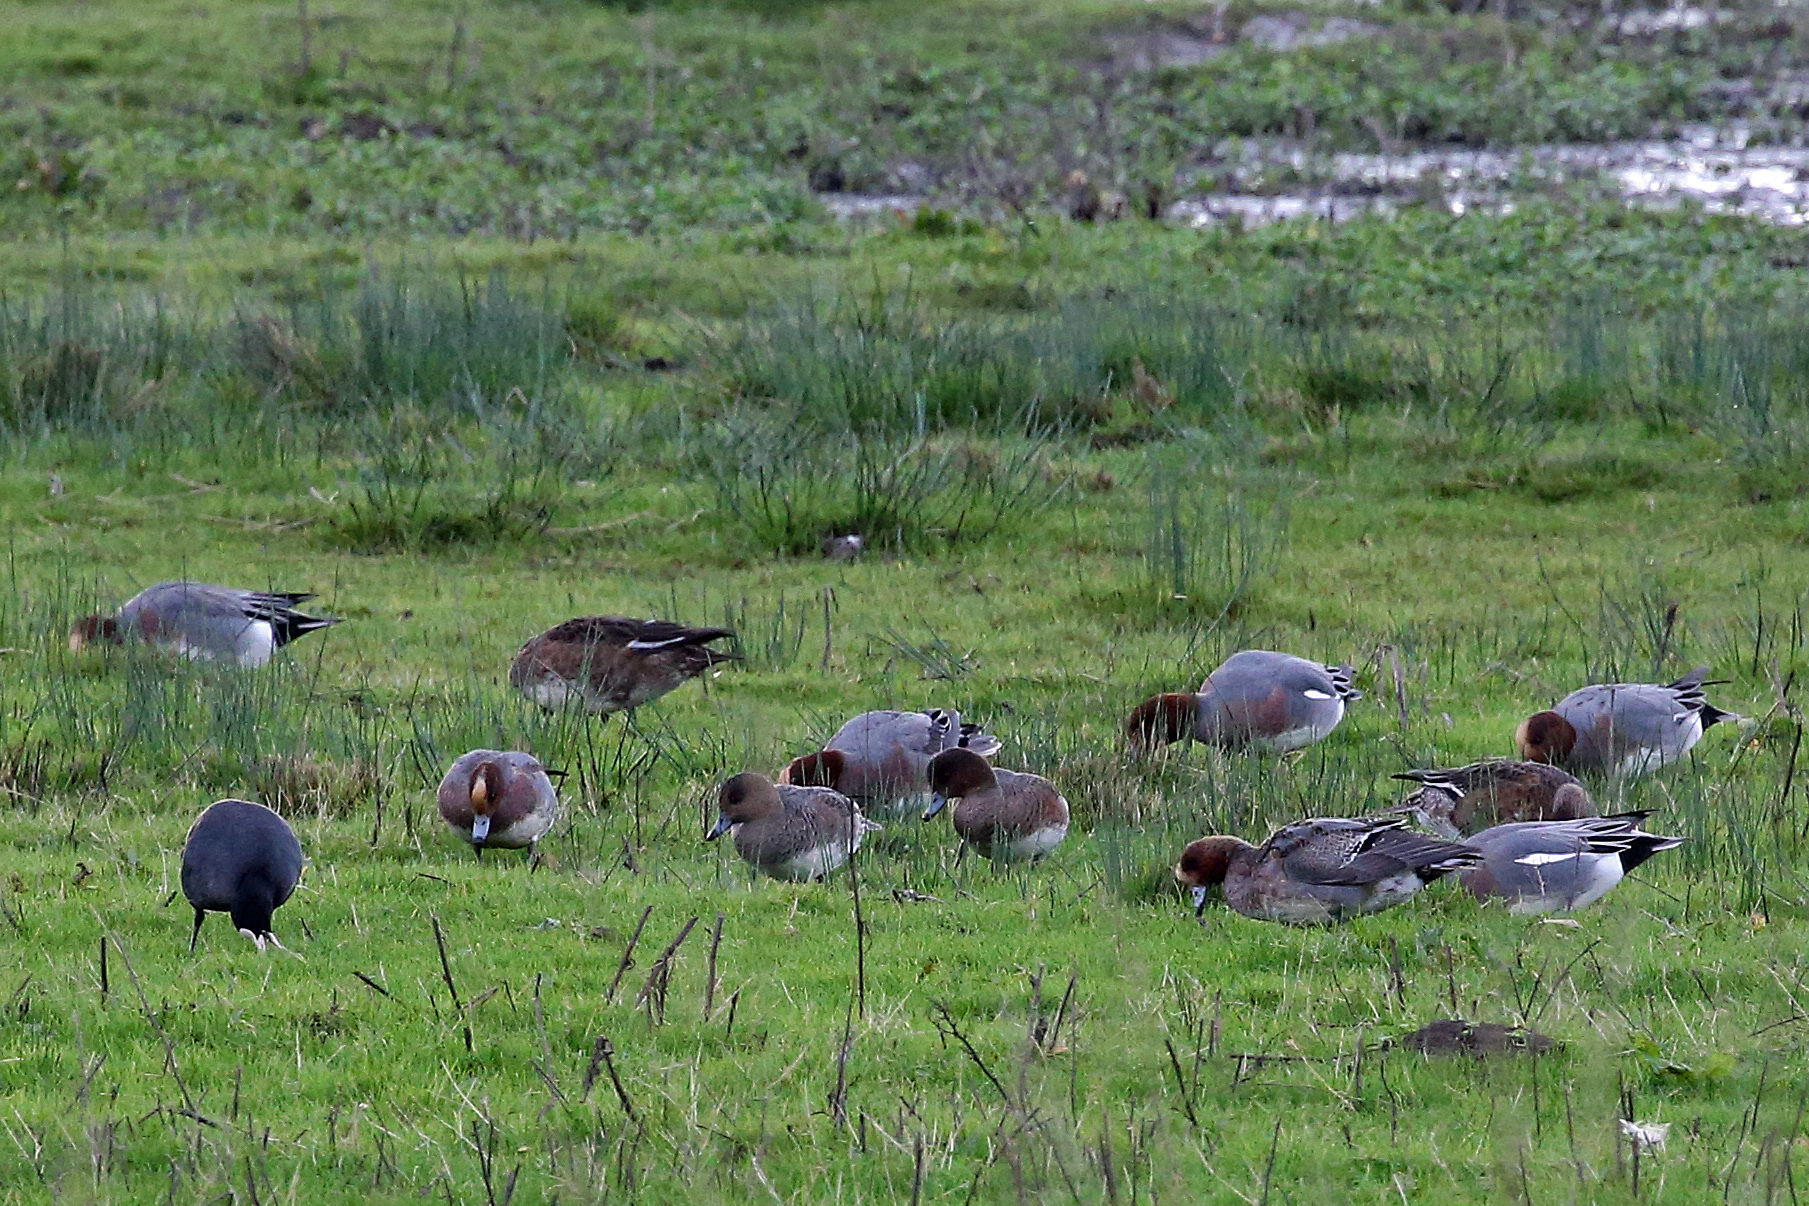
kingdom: Animalia
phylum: Chordata
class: Aves
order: Anseriformes
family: Anatidae
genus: Mareca
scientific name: Mareca penelope
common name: Eurasian wigeon
